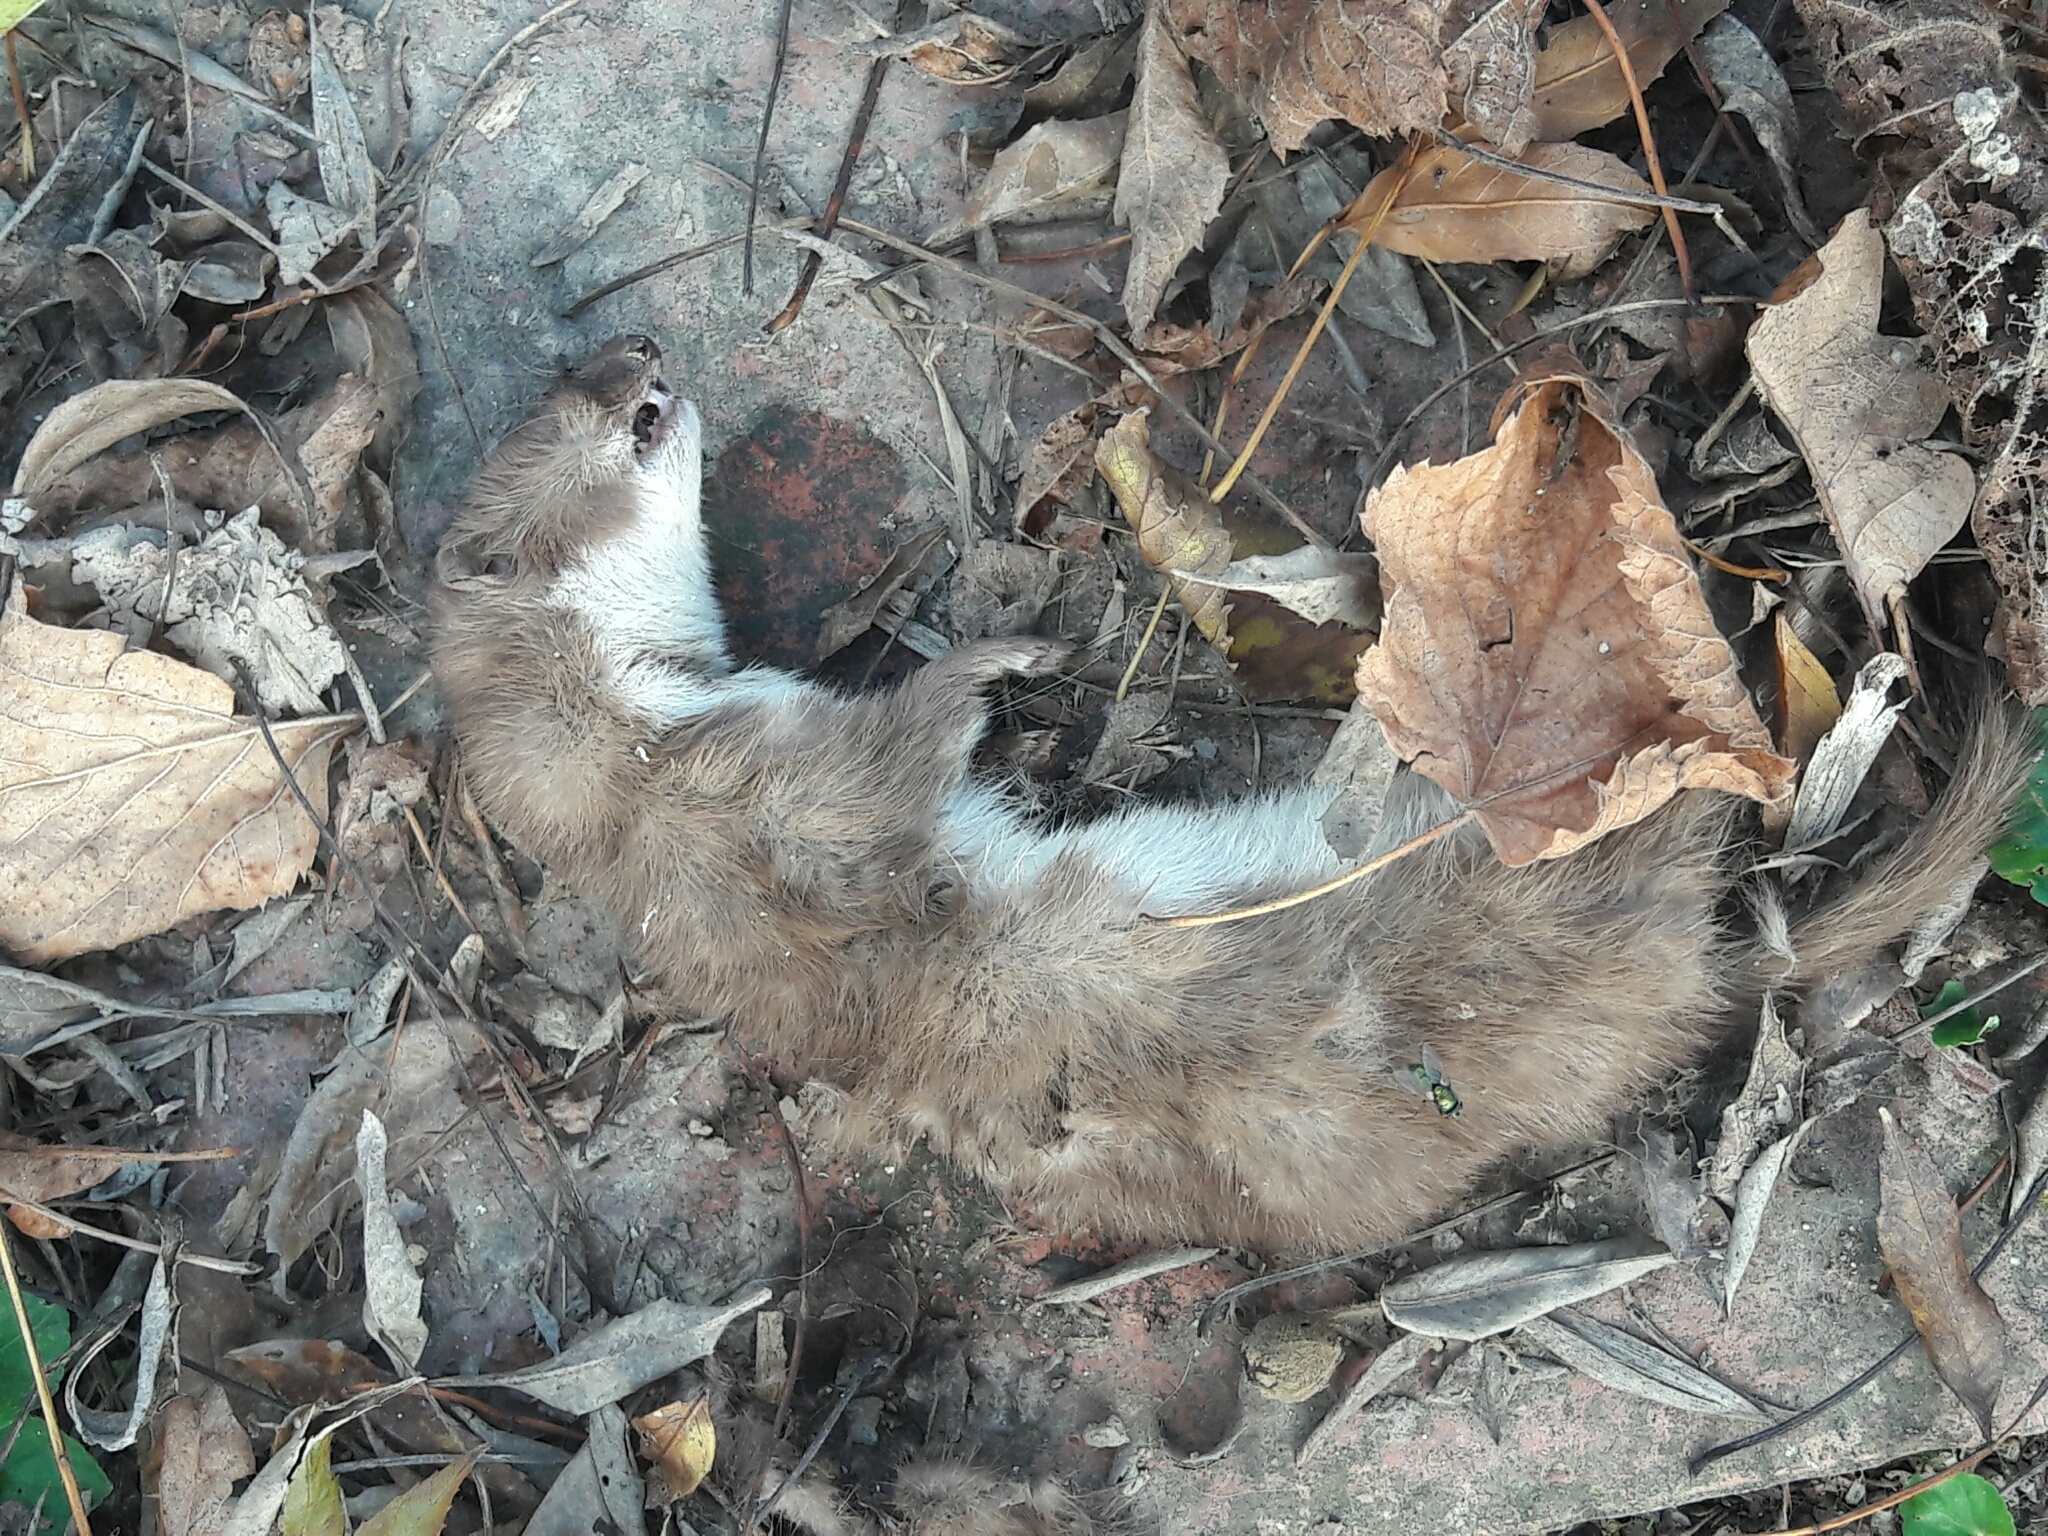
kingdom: Animalia
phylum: Chordata
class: Mammalia
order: Carnivora
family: Mustelidae
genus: Mustela
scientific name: Mustela nivalis
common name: Least weasel
